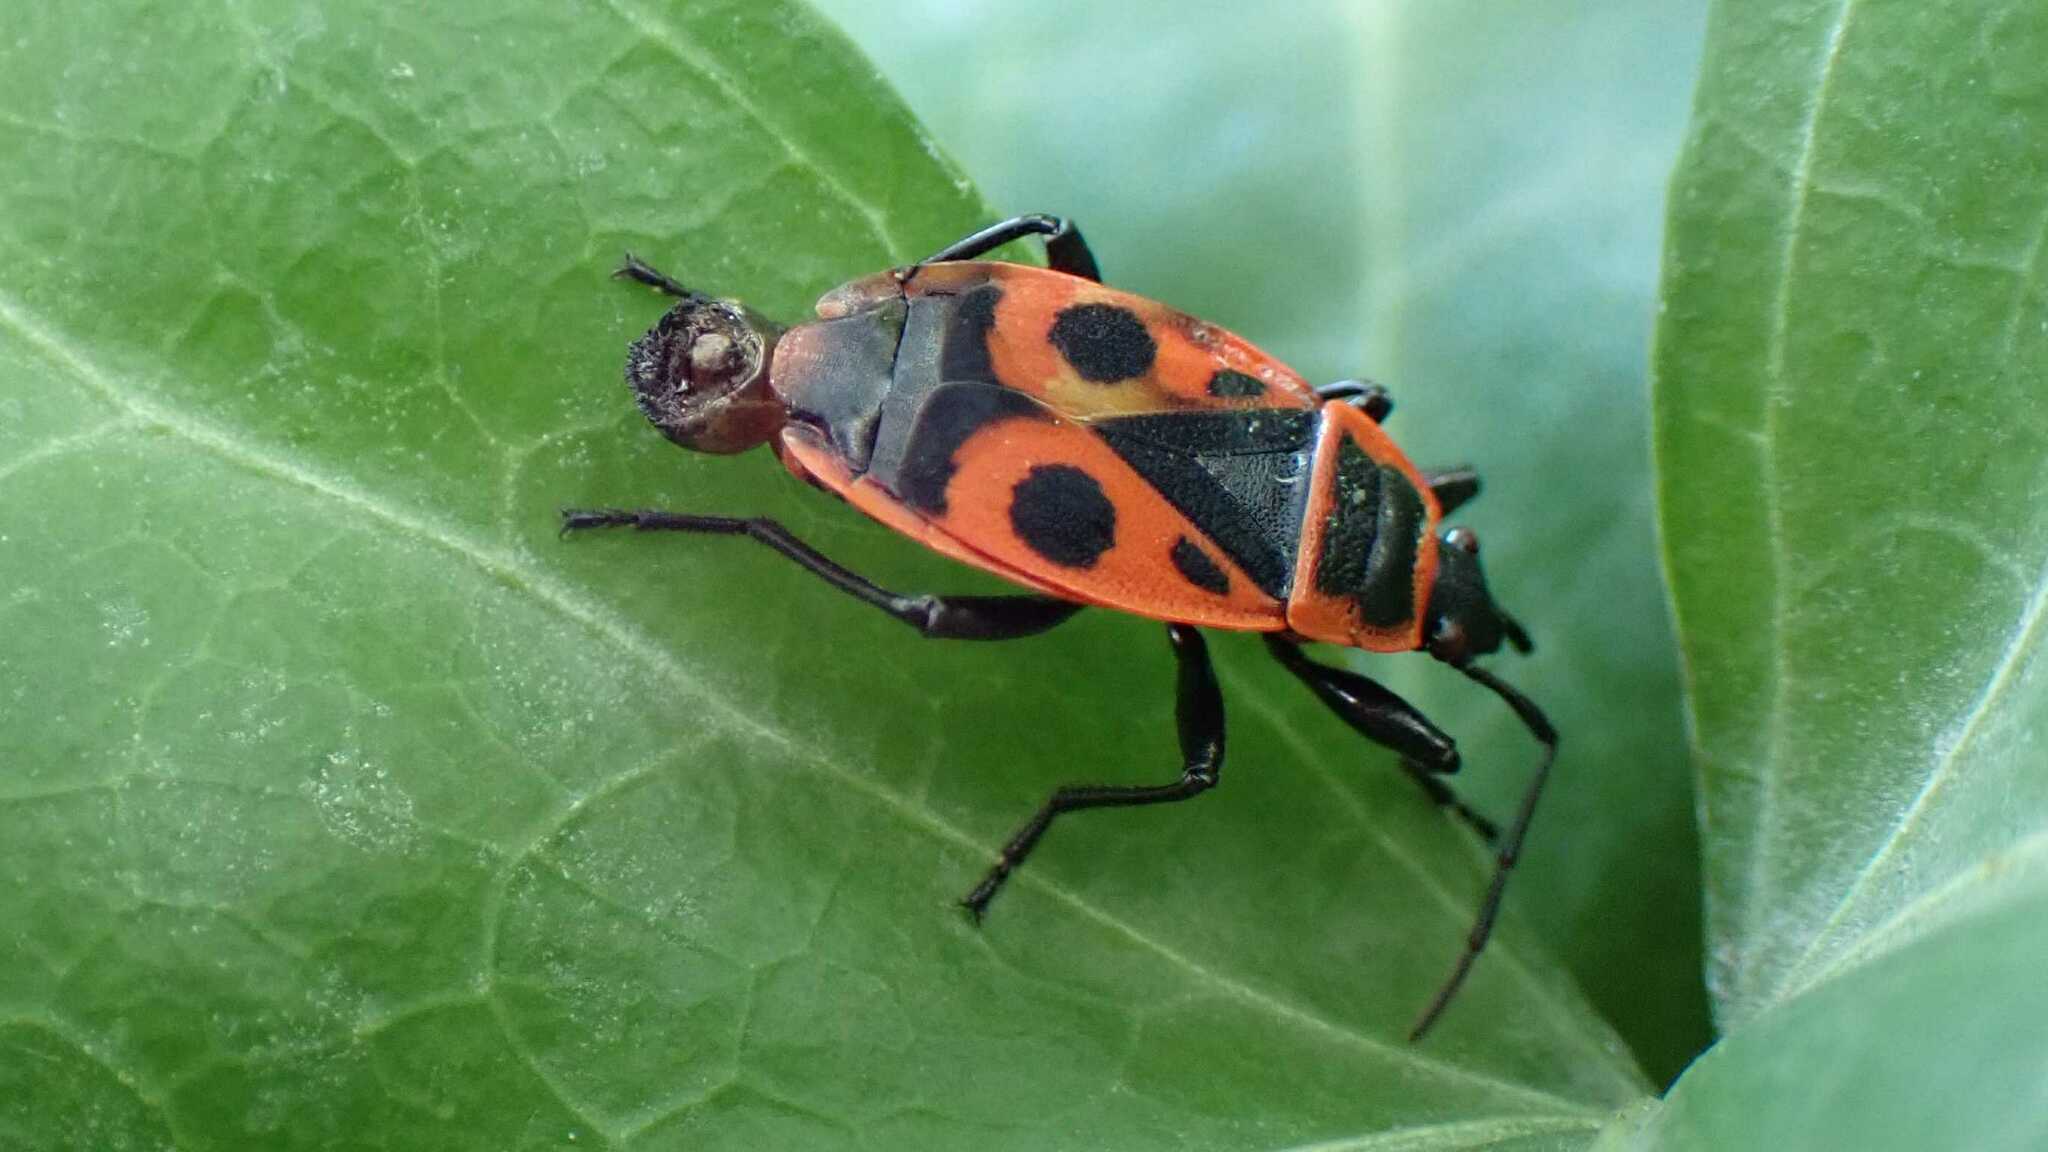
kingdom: Animalia
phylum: Arthropoda
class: Insecta
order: Hemiptera
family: Pyrrhocoridae
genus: Pyrrhocoris
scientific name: Pyrrhocoris apterus
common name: Firebug
